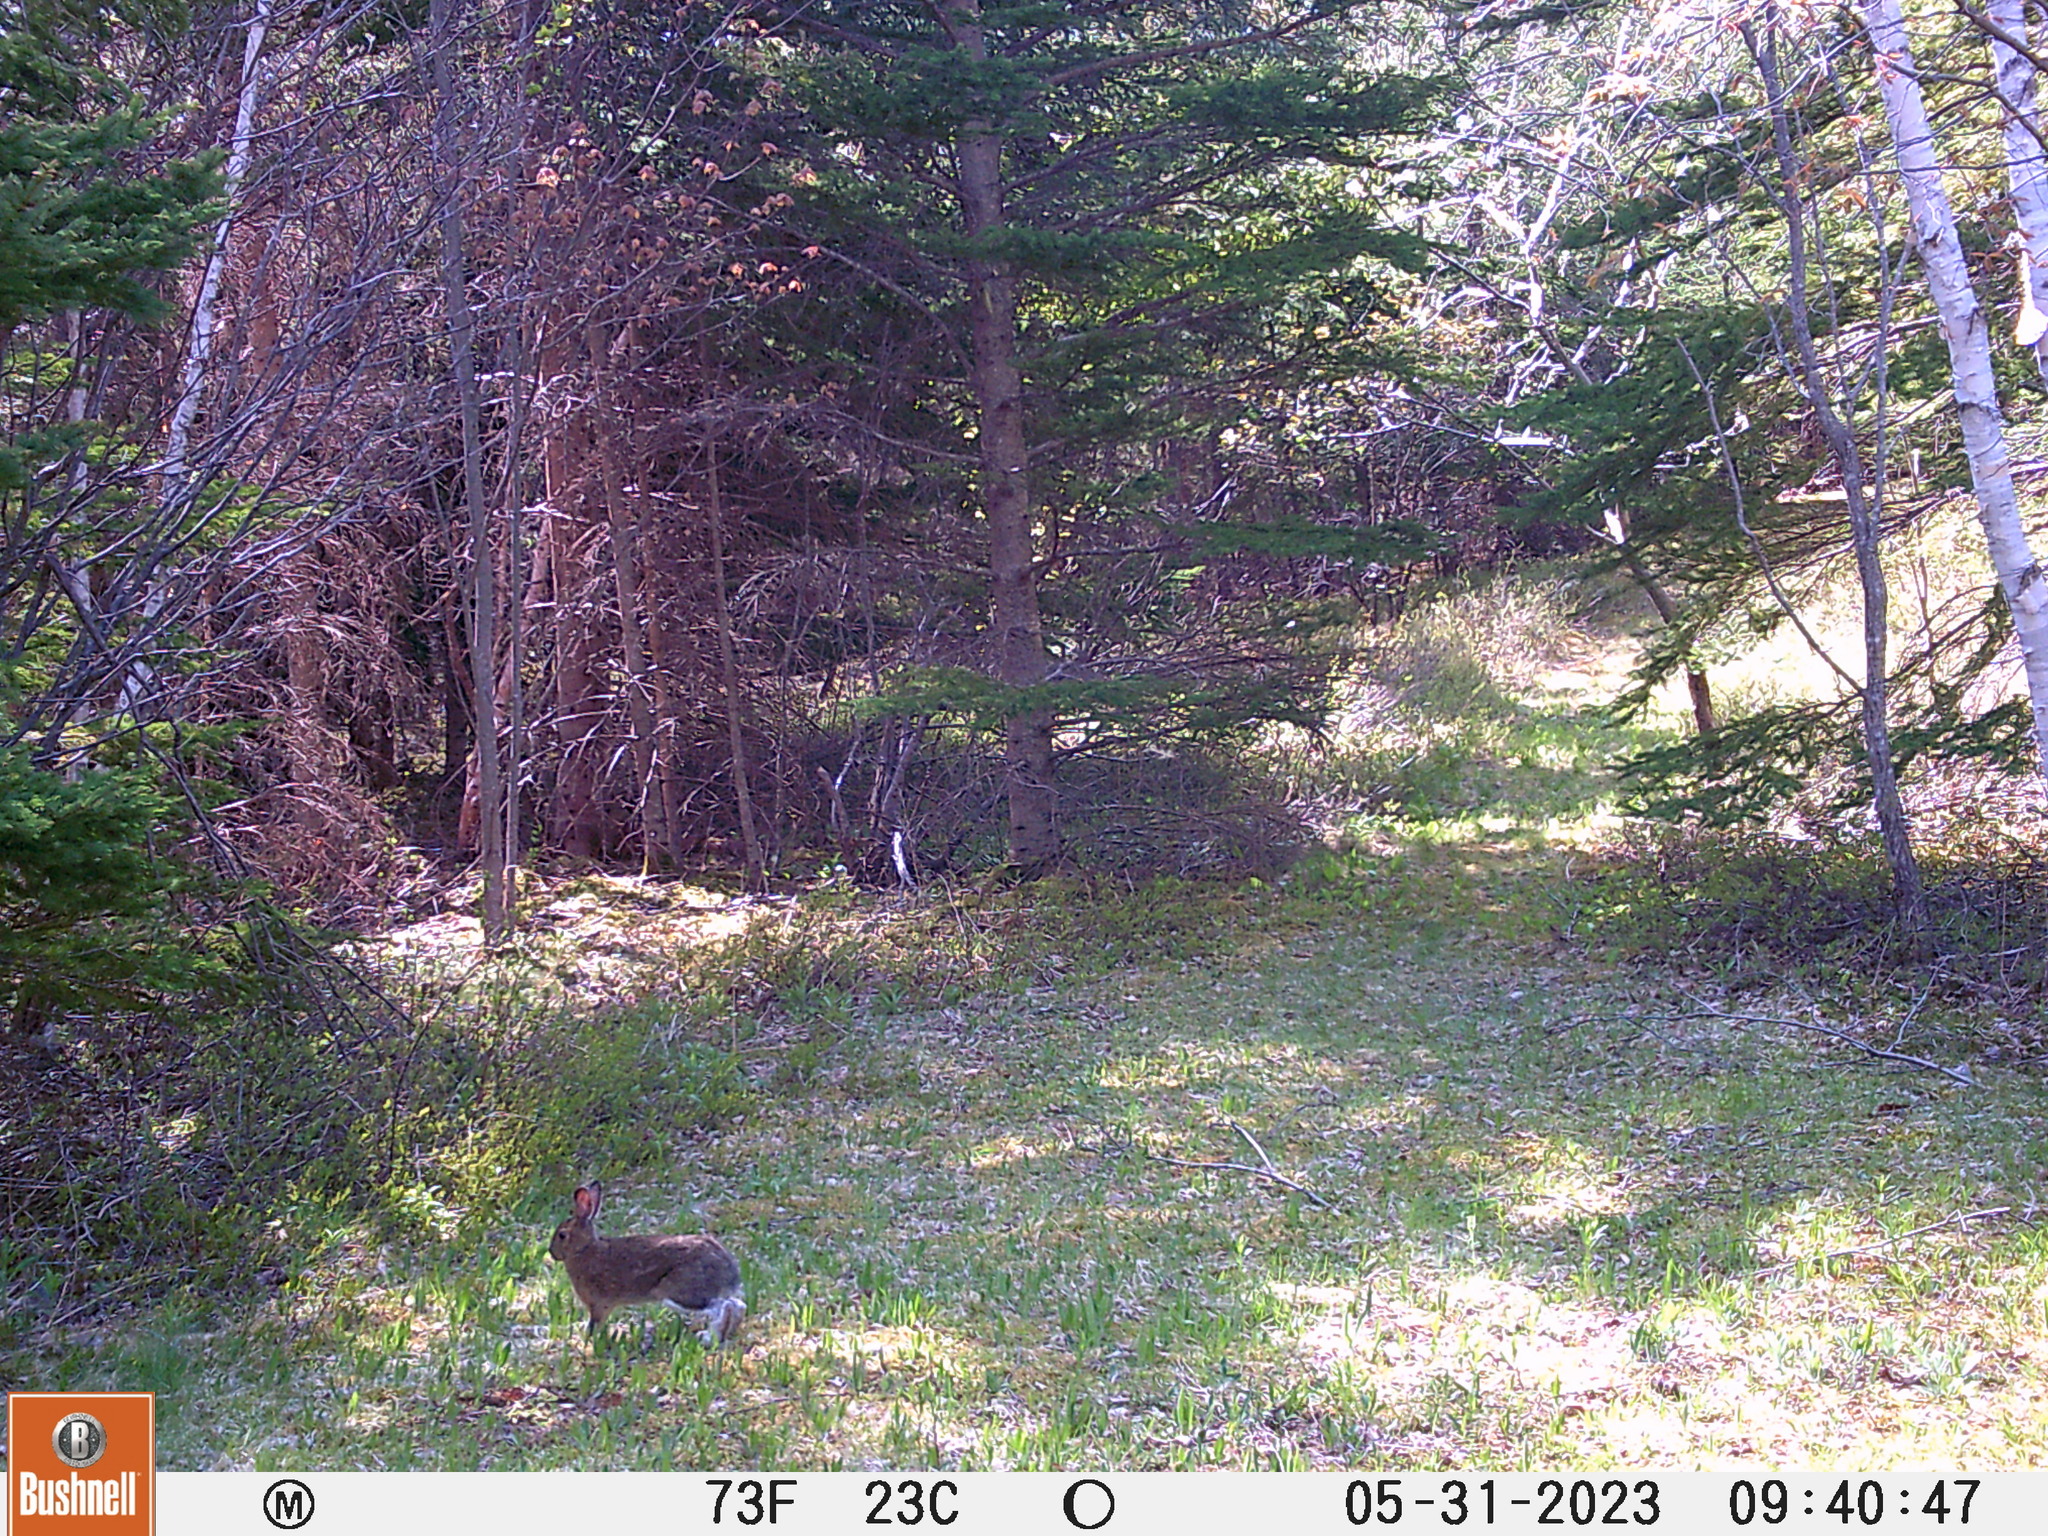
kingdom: Animalia
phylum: Chordata
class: Mammalia
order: Lagomorpha
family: Leporidae
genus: Lepus
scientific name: Lepus americanus
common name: Snowshoe hare
